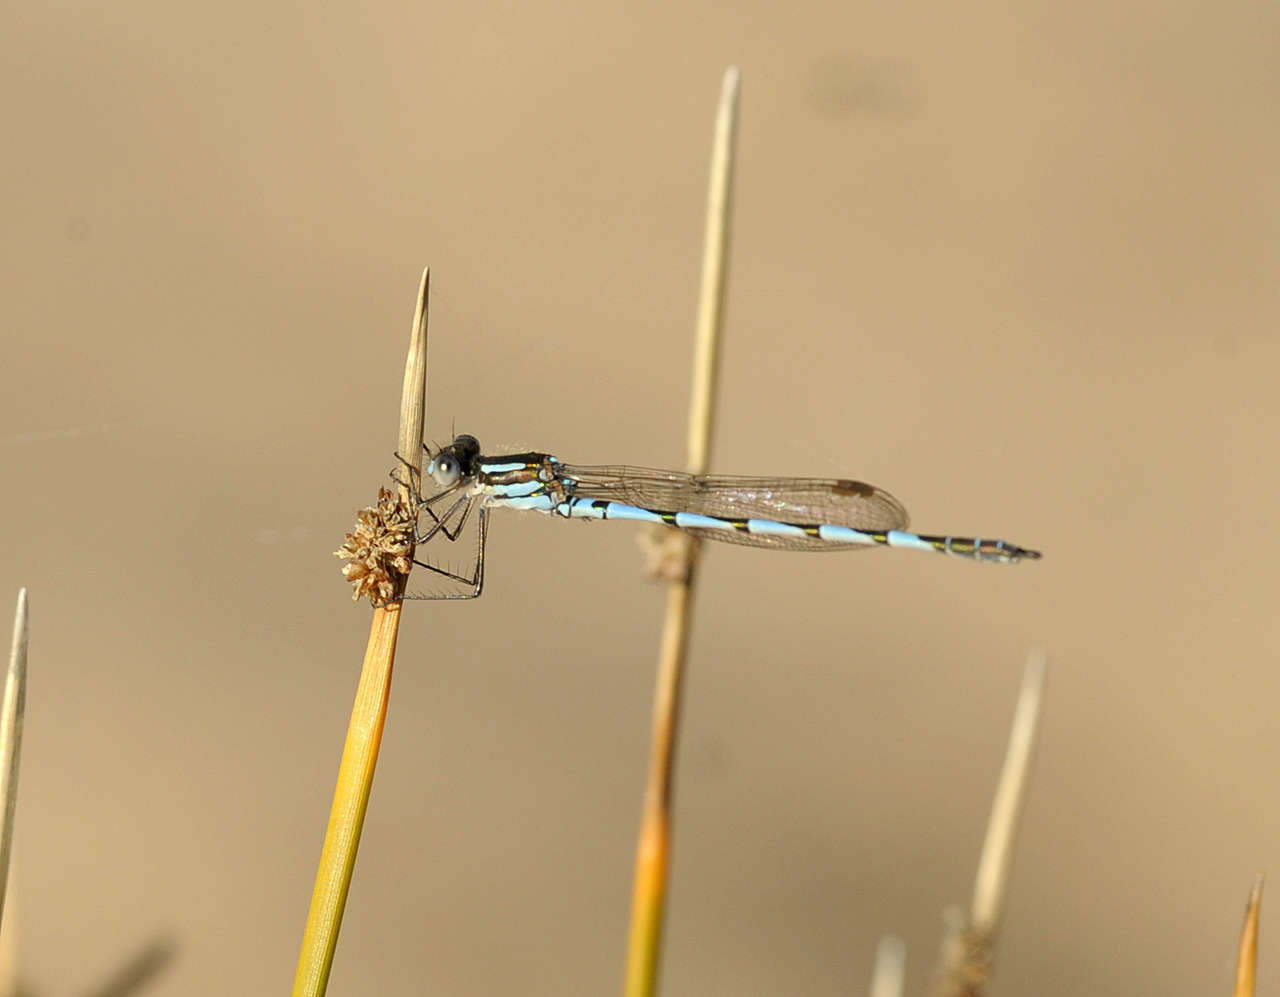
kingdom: Animalia
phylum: Arthropoda
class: Insecta
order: Odonata
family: Lestidae
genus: Austrolestes
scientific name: Austrolestes annulosus
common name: Blue ringtail
